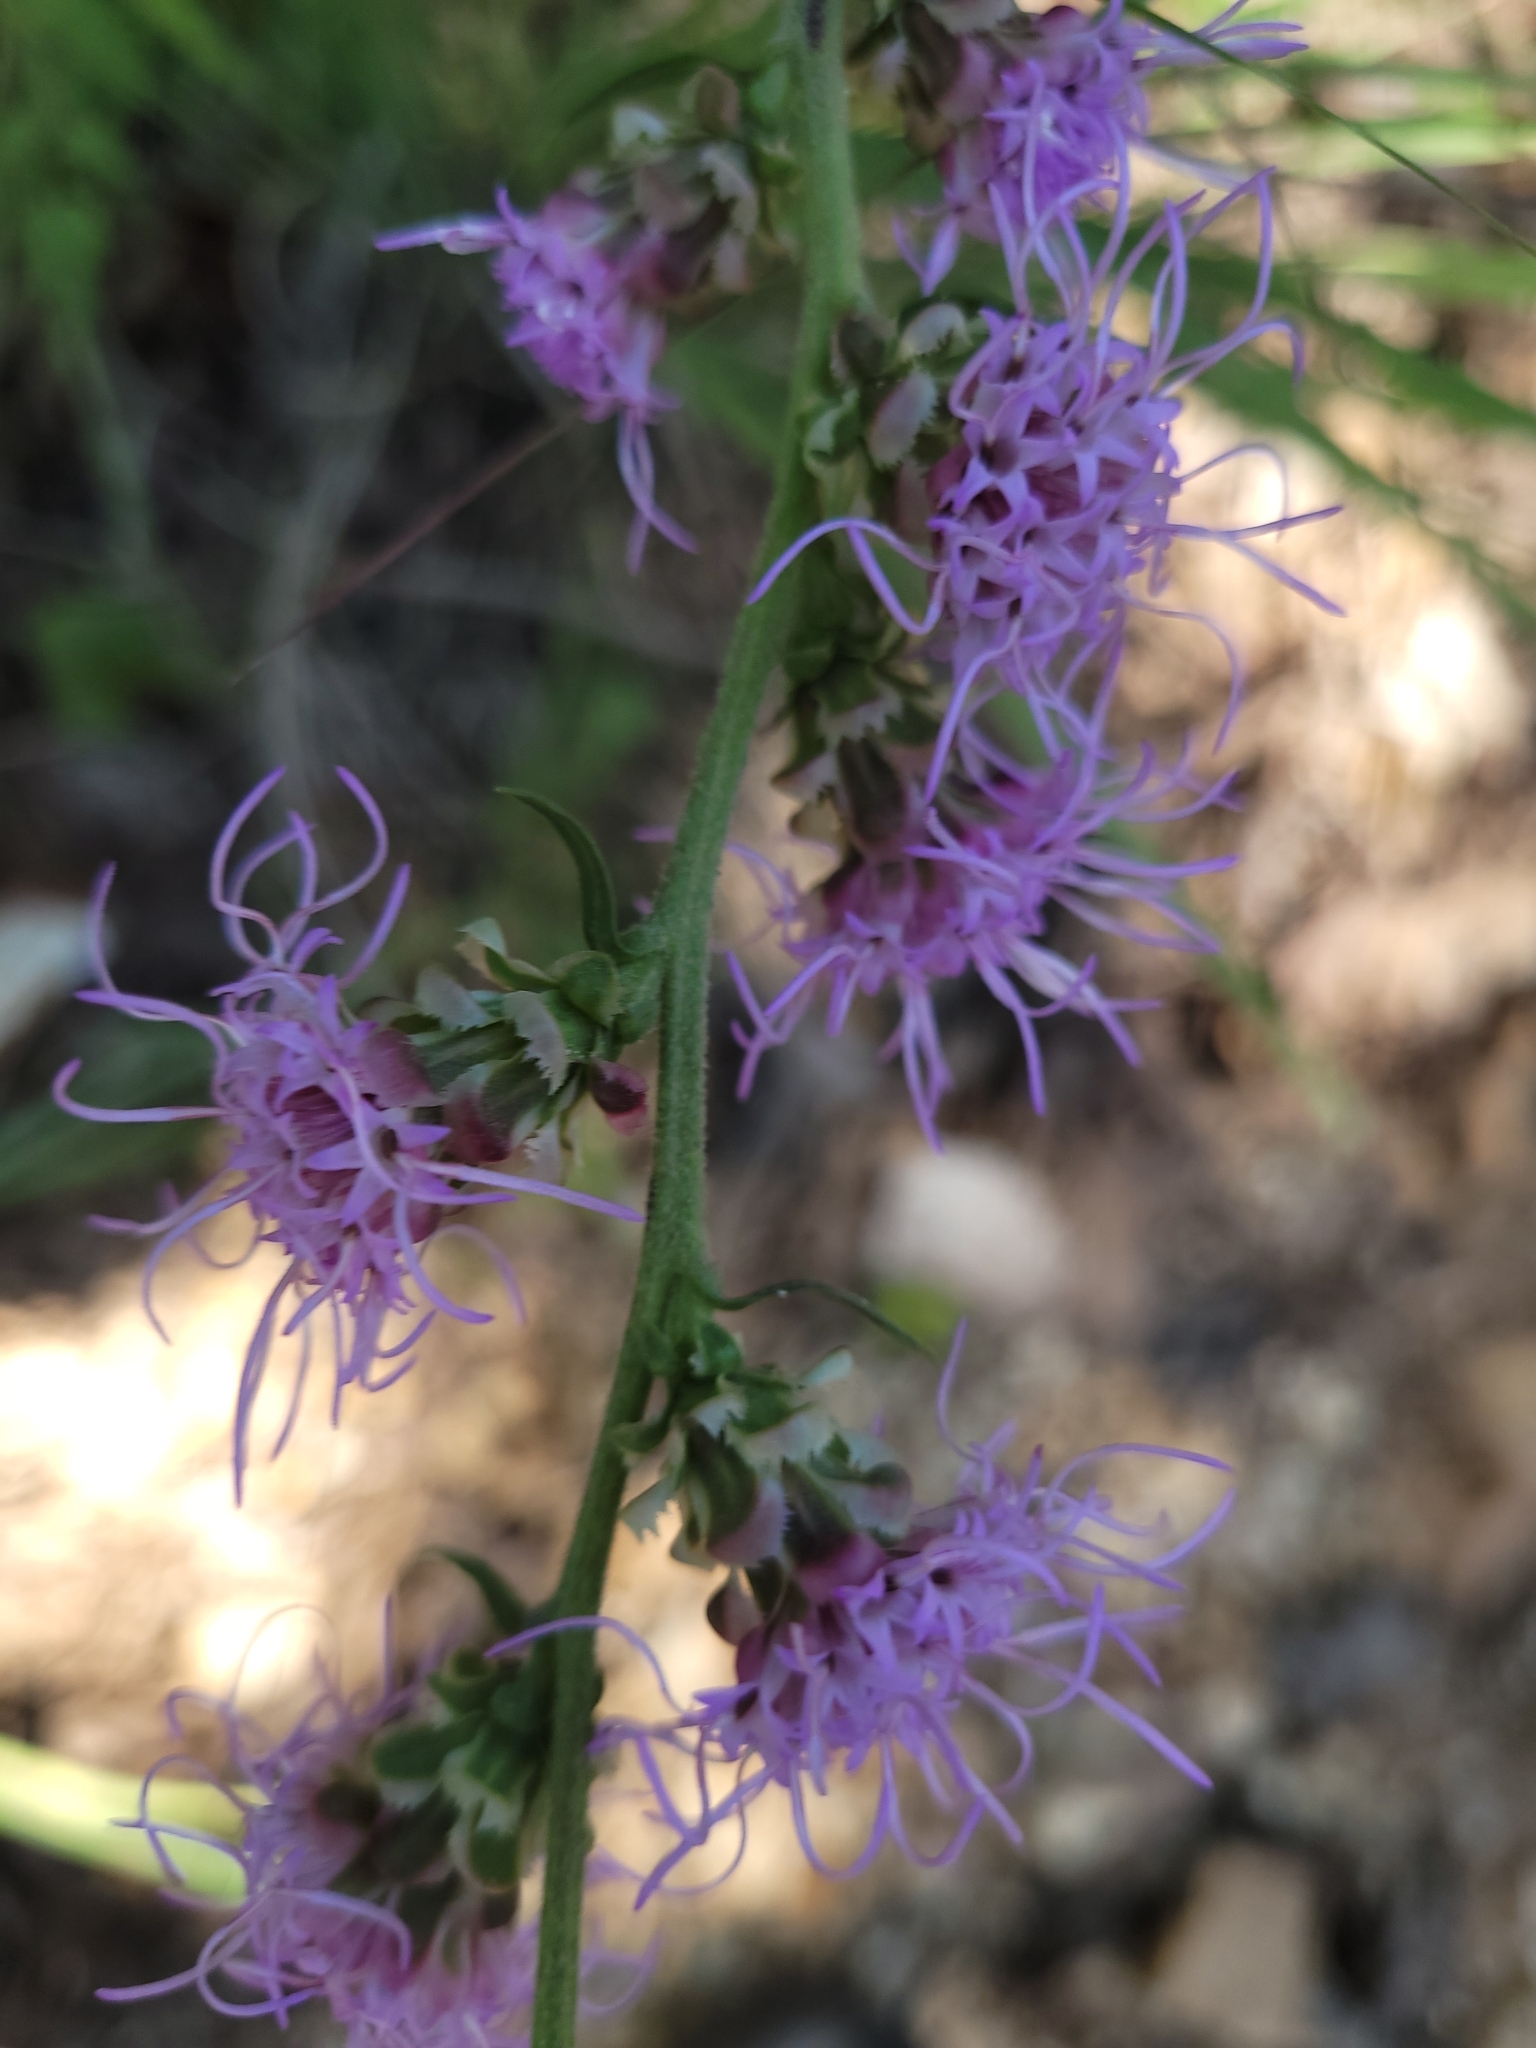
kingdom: Plantae
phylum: Tracheophyta
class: Magnoliopsida
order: Asterales
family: Asteraceae
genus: Liatris
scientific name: Liatris aspera
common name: Lacerate blazing-star
